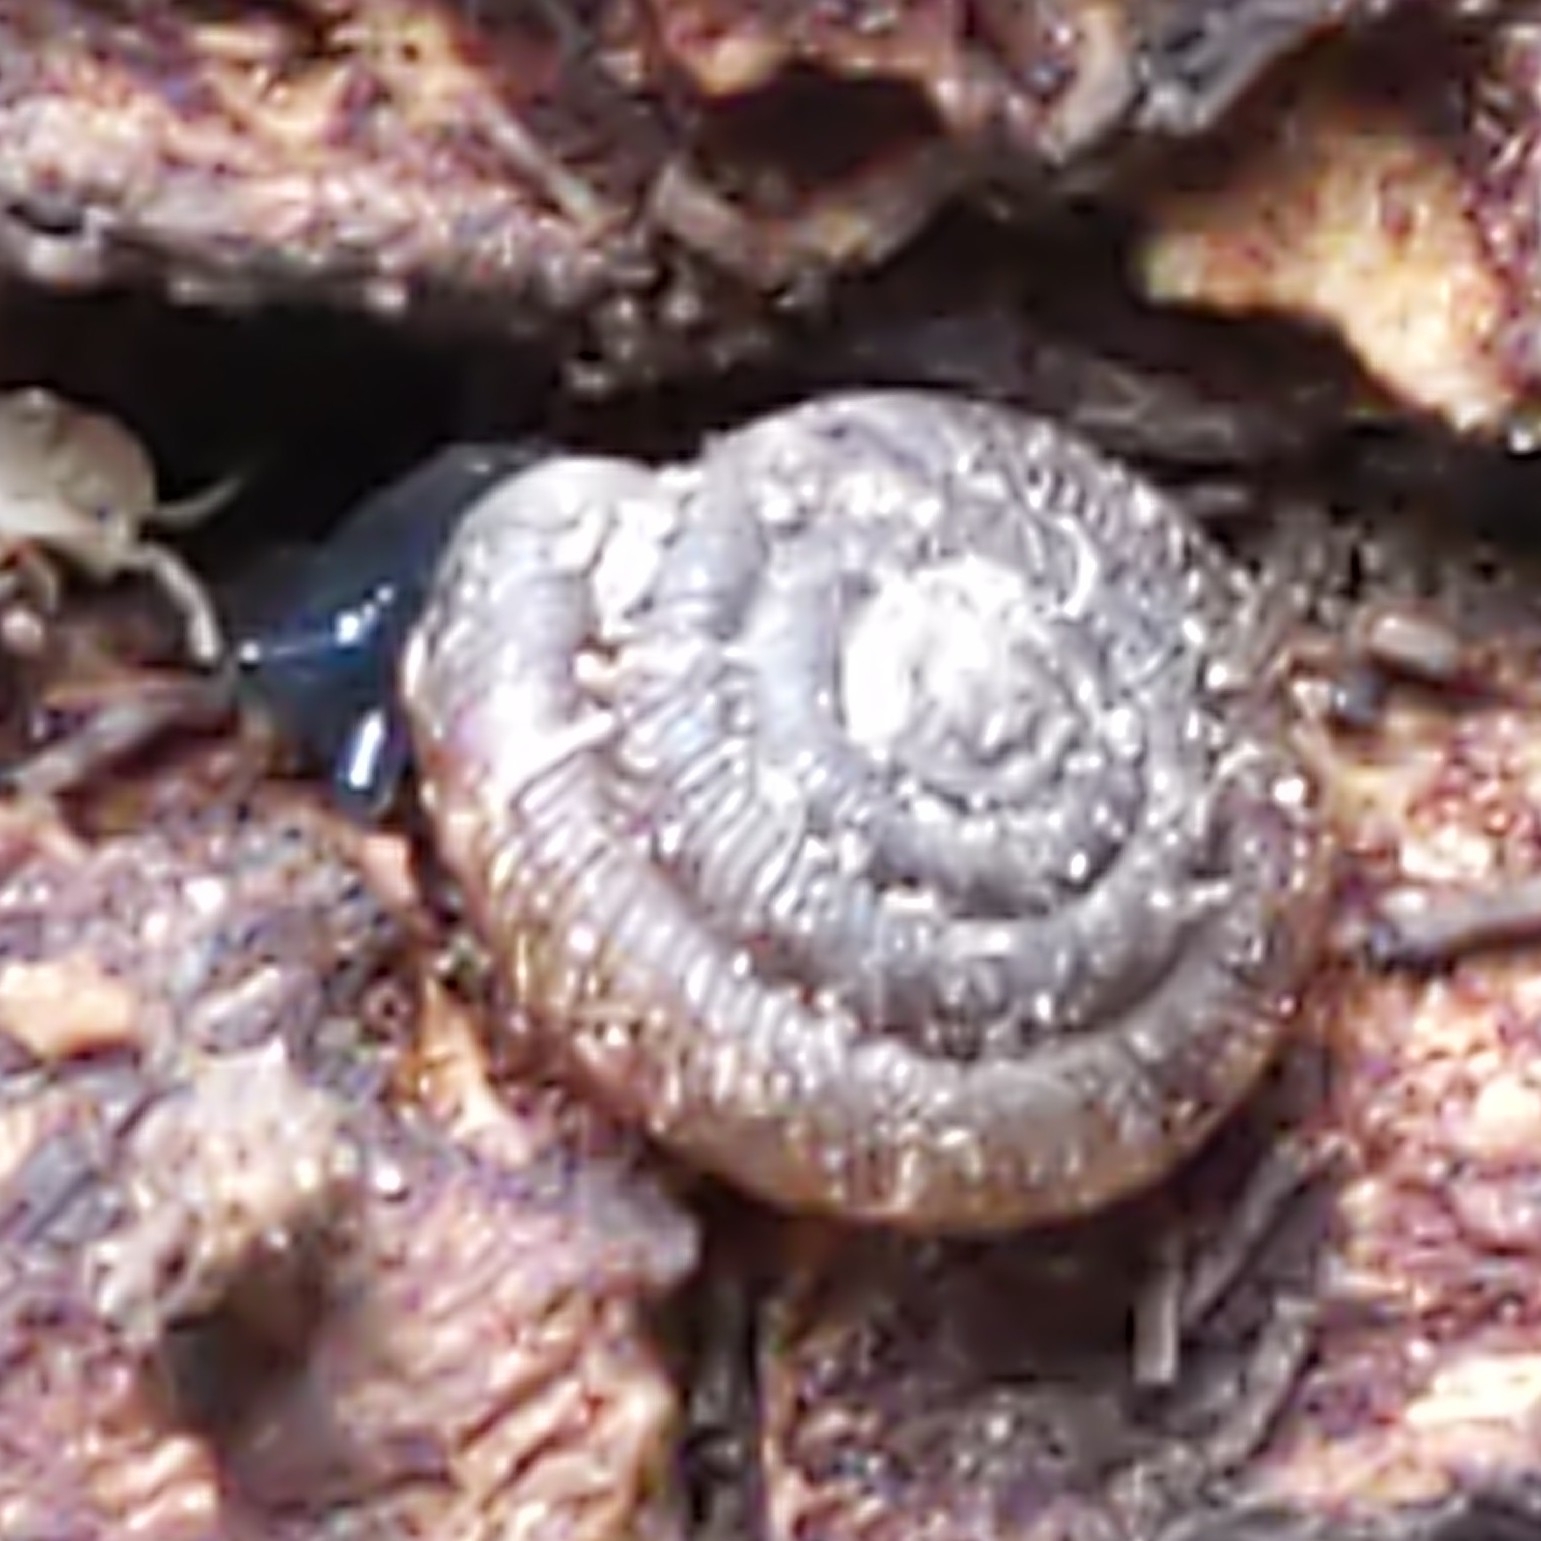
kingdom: Animalia
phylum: Mollusca
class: Gastropoda
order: Stylommatophora
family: Discidae
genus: Discus
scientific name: Discus rotundatus
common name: Rounded snail
